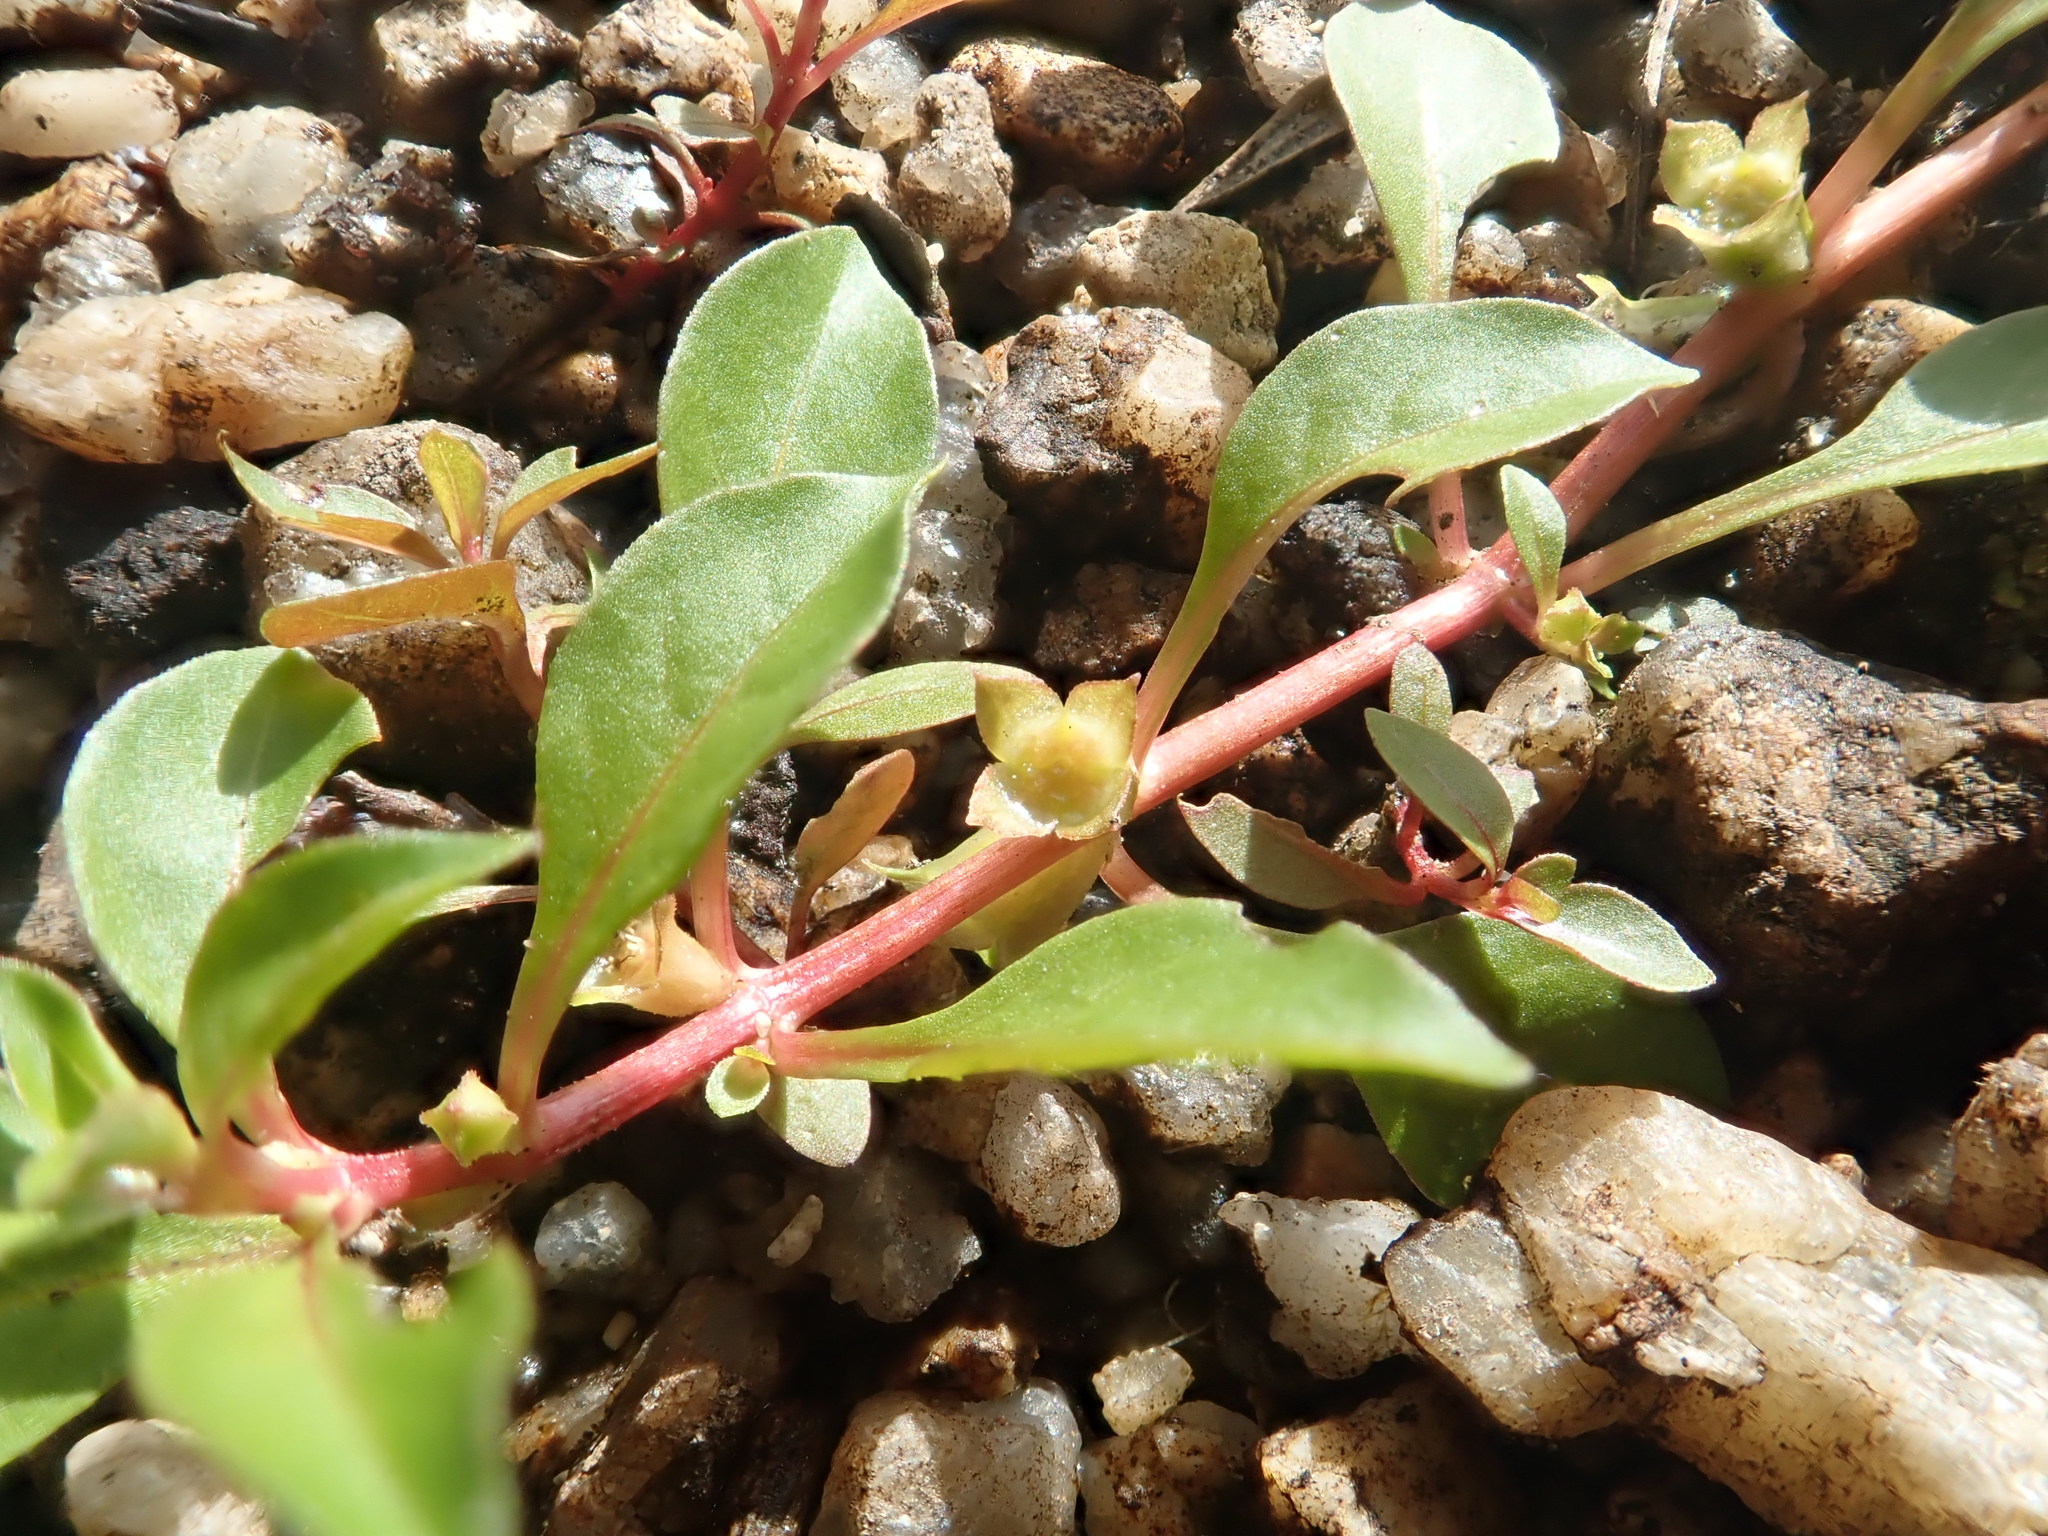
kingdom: Plantae
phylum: Tracheophyta
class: Magnoliopsida
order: Myrtales
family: Onagraceae
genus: Ludwigia
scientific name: Ludwigia palustris
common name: Hampshire-purslane
